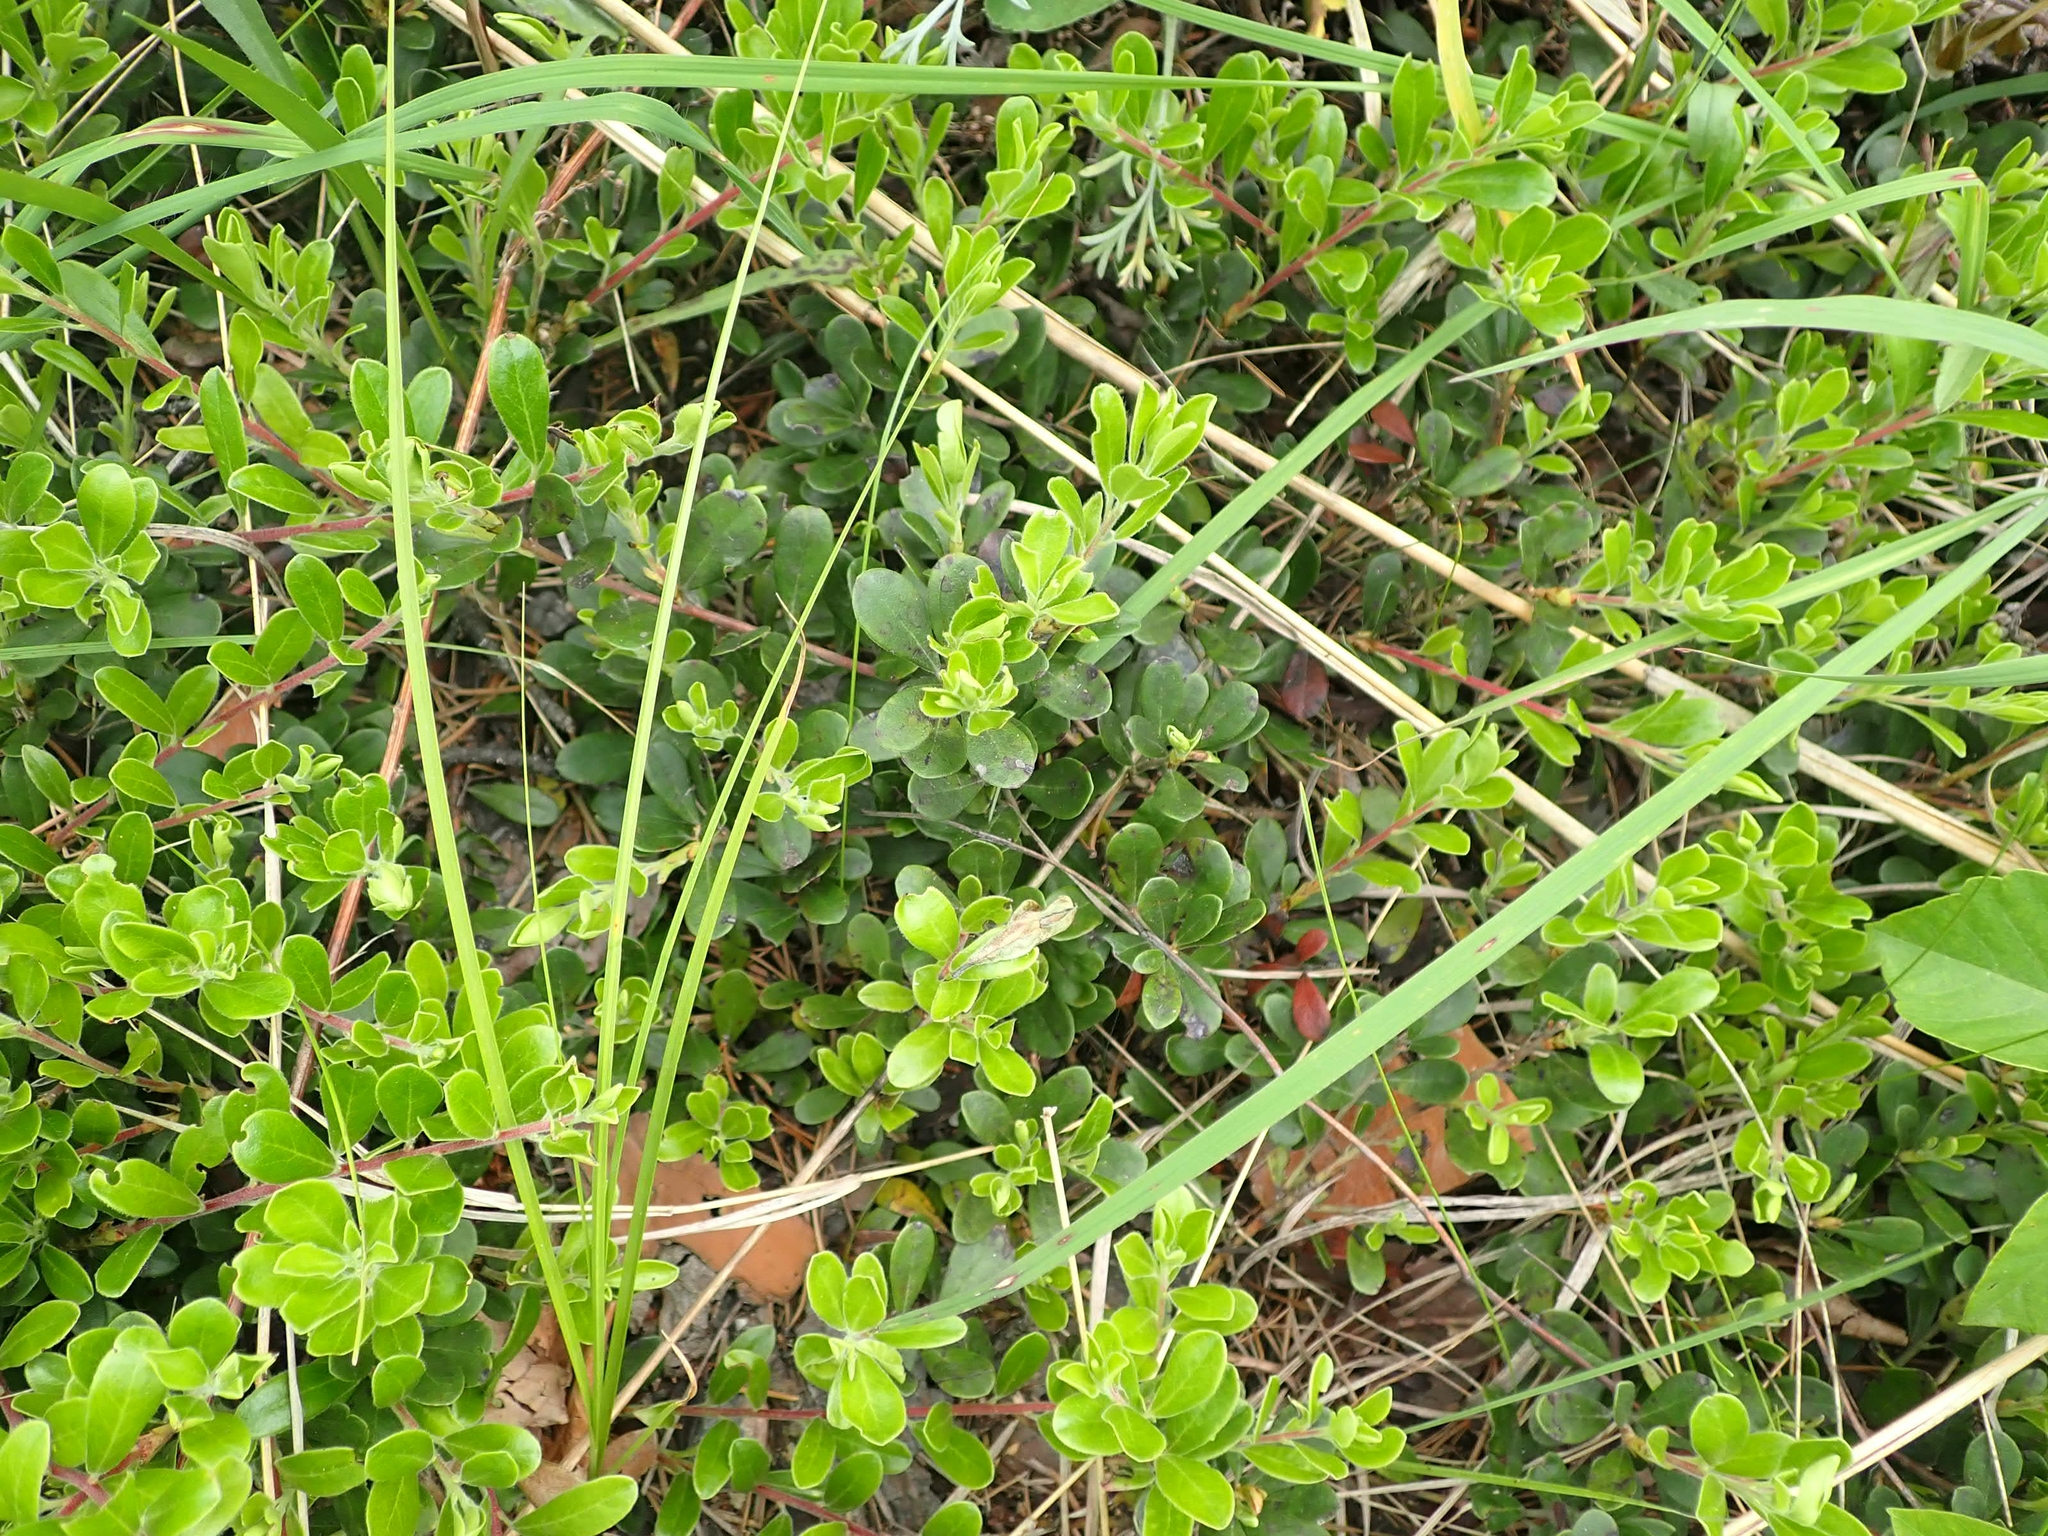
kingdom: Plantae
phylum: Tracheophyta
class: Magnoliopsida
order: Ericales
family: Ericaceae
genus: Arctostaphylos
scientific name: Arctostaphylos uva-ursi
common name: Bearberry
